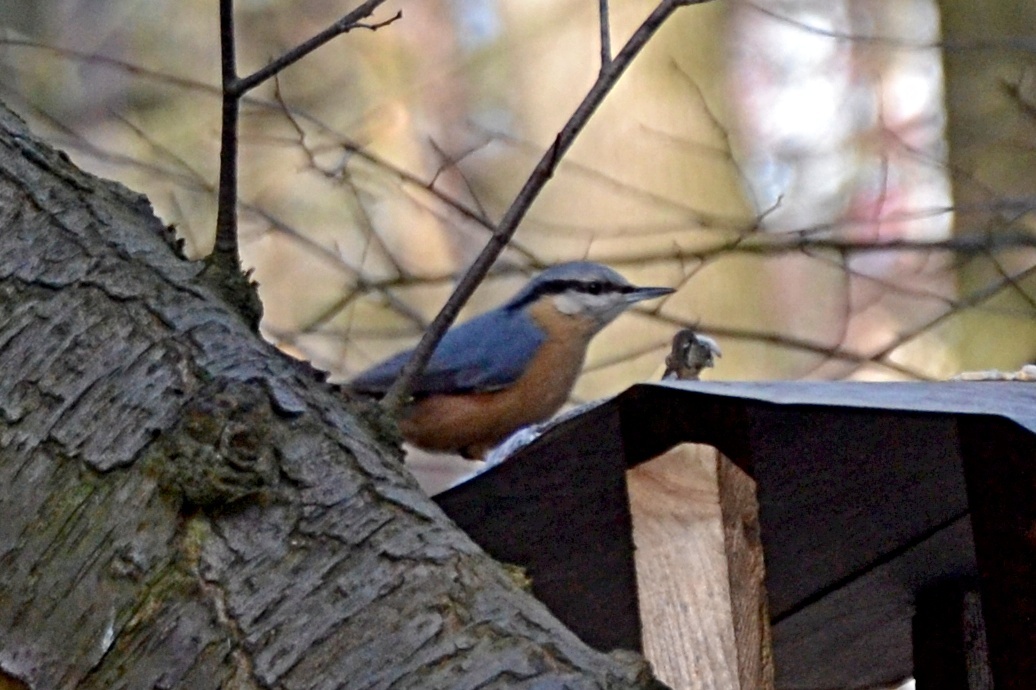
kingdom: Animalia
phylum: Chordata
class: Aves
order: Passeriformes
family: Sittidae
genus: Sitta
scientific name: Sitta europaea
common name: Eurasian nuthatch
